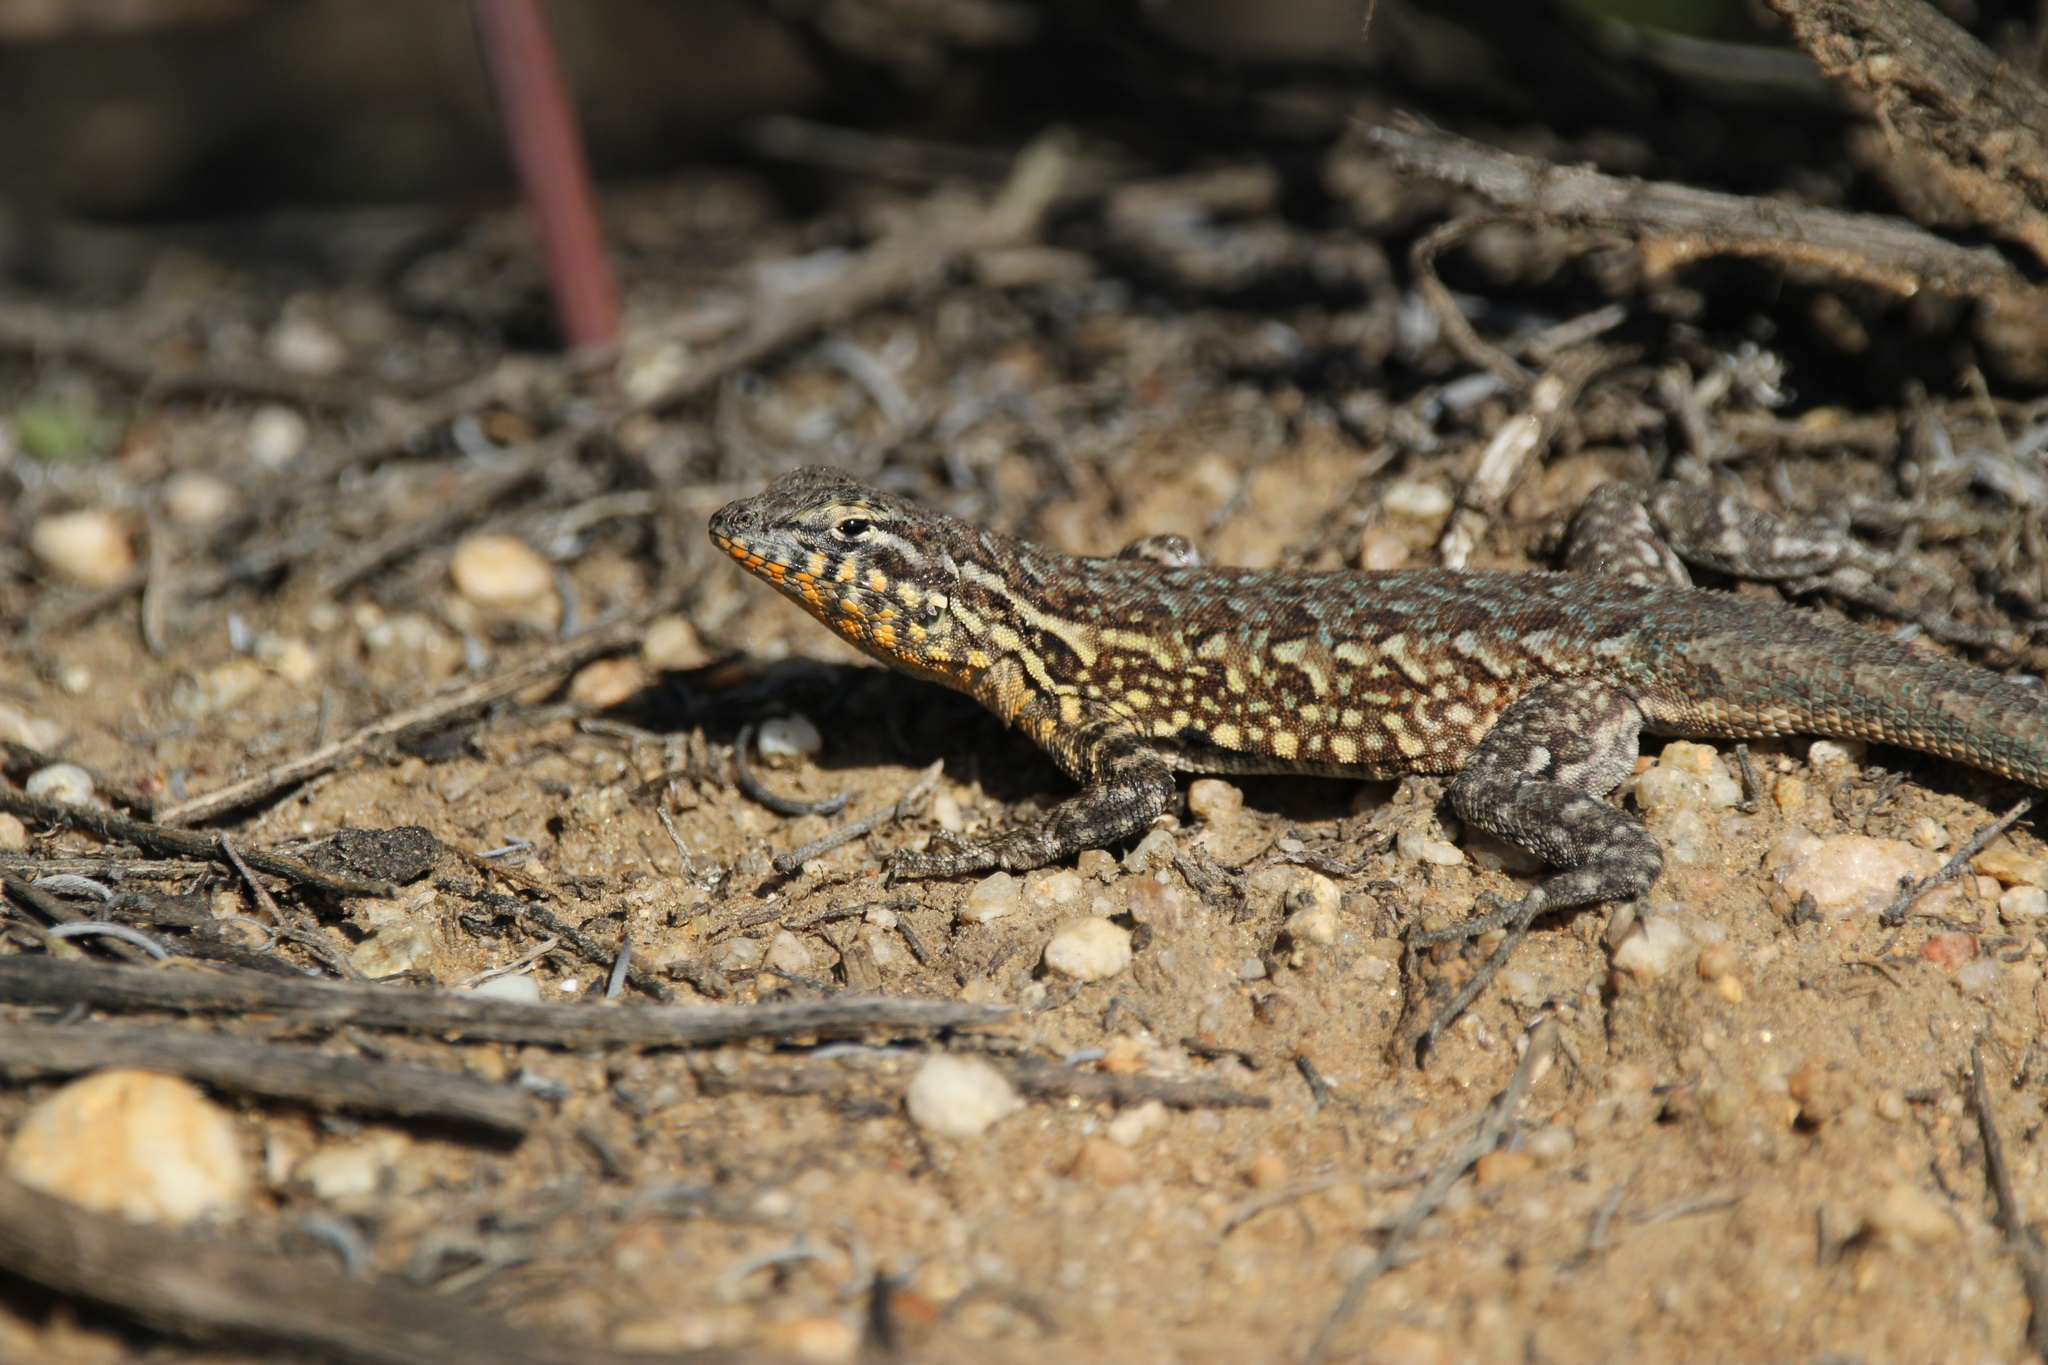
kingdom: Animalia
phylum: Chordata
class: Squamata
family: Phrynosomatidae
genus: Uta
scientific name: Uta stansburiana
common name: Side-blotched lizard
